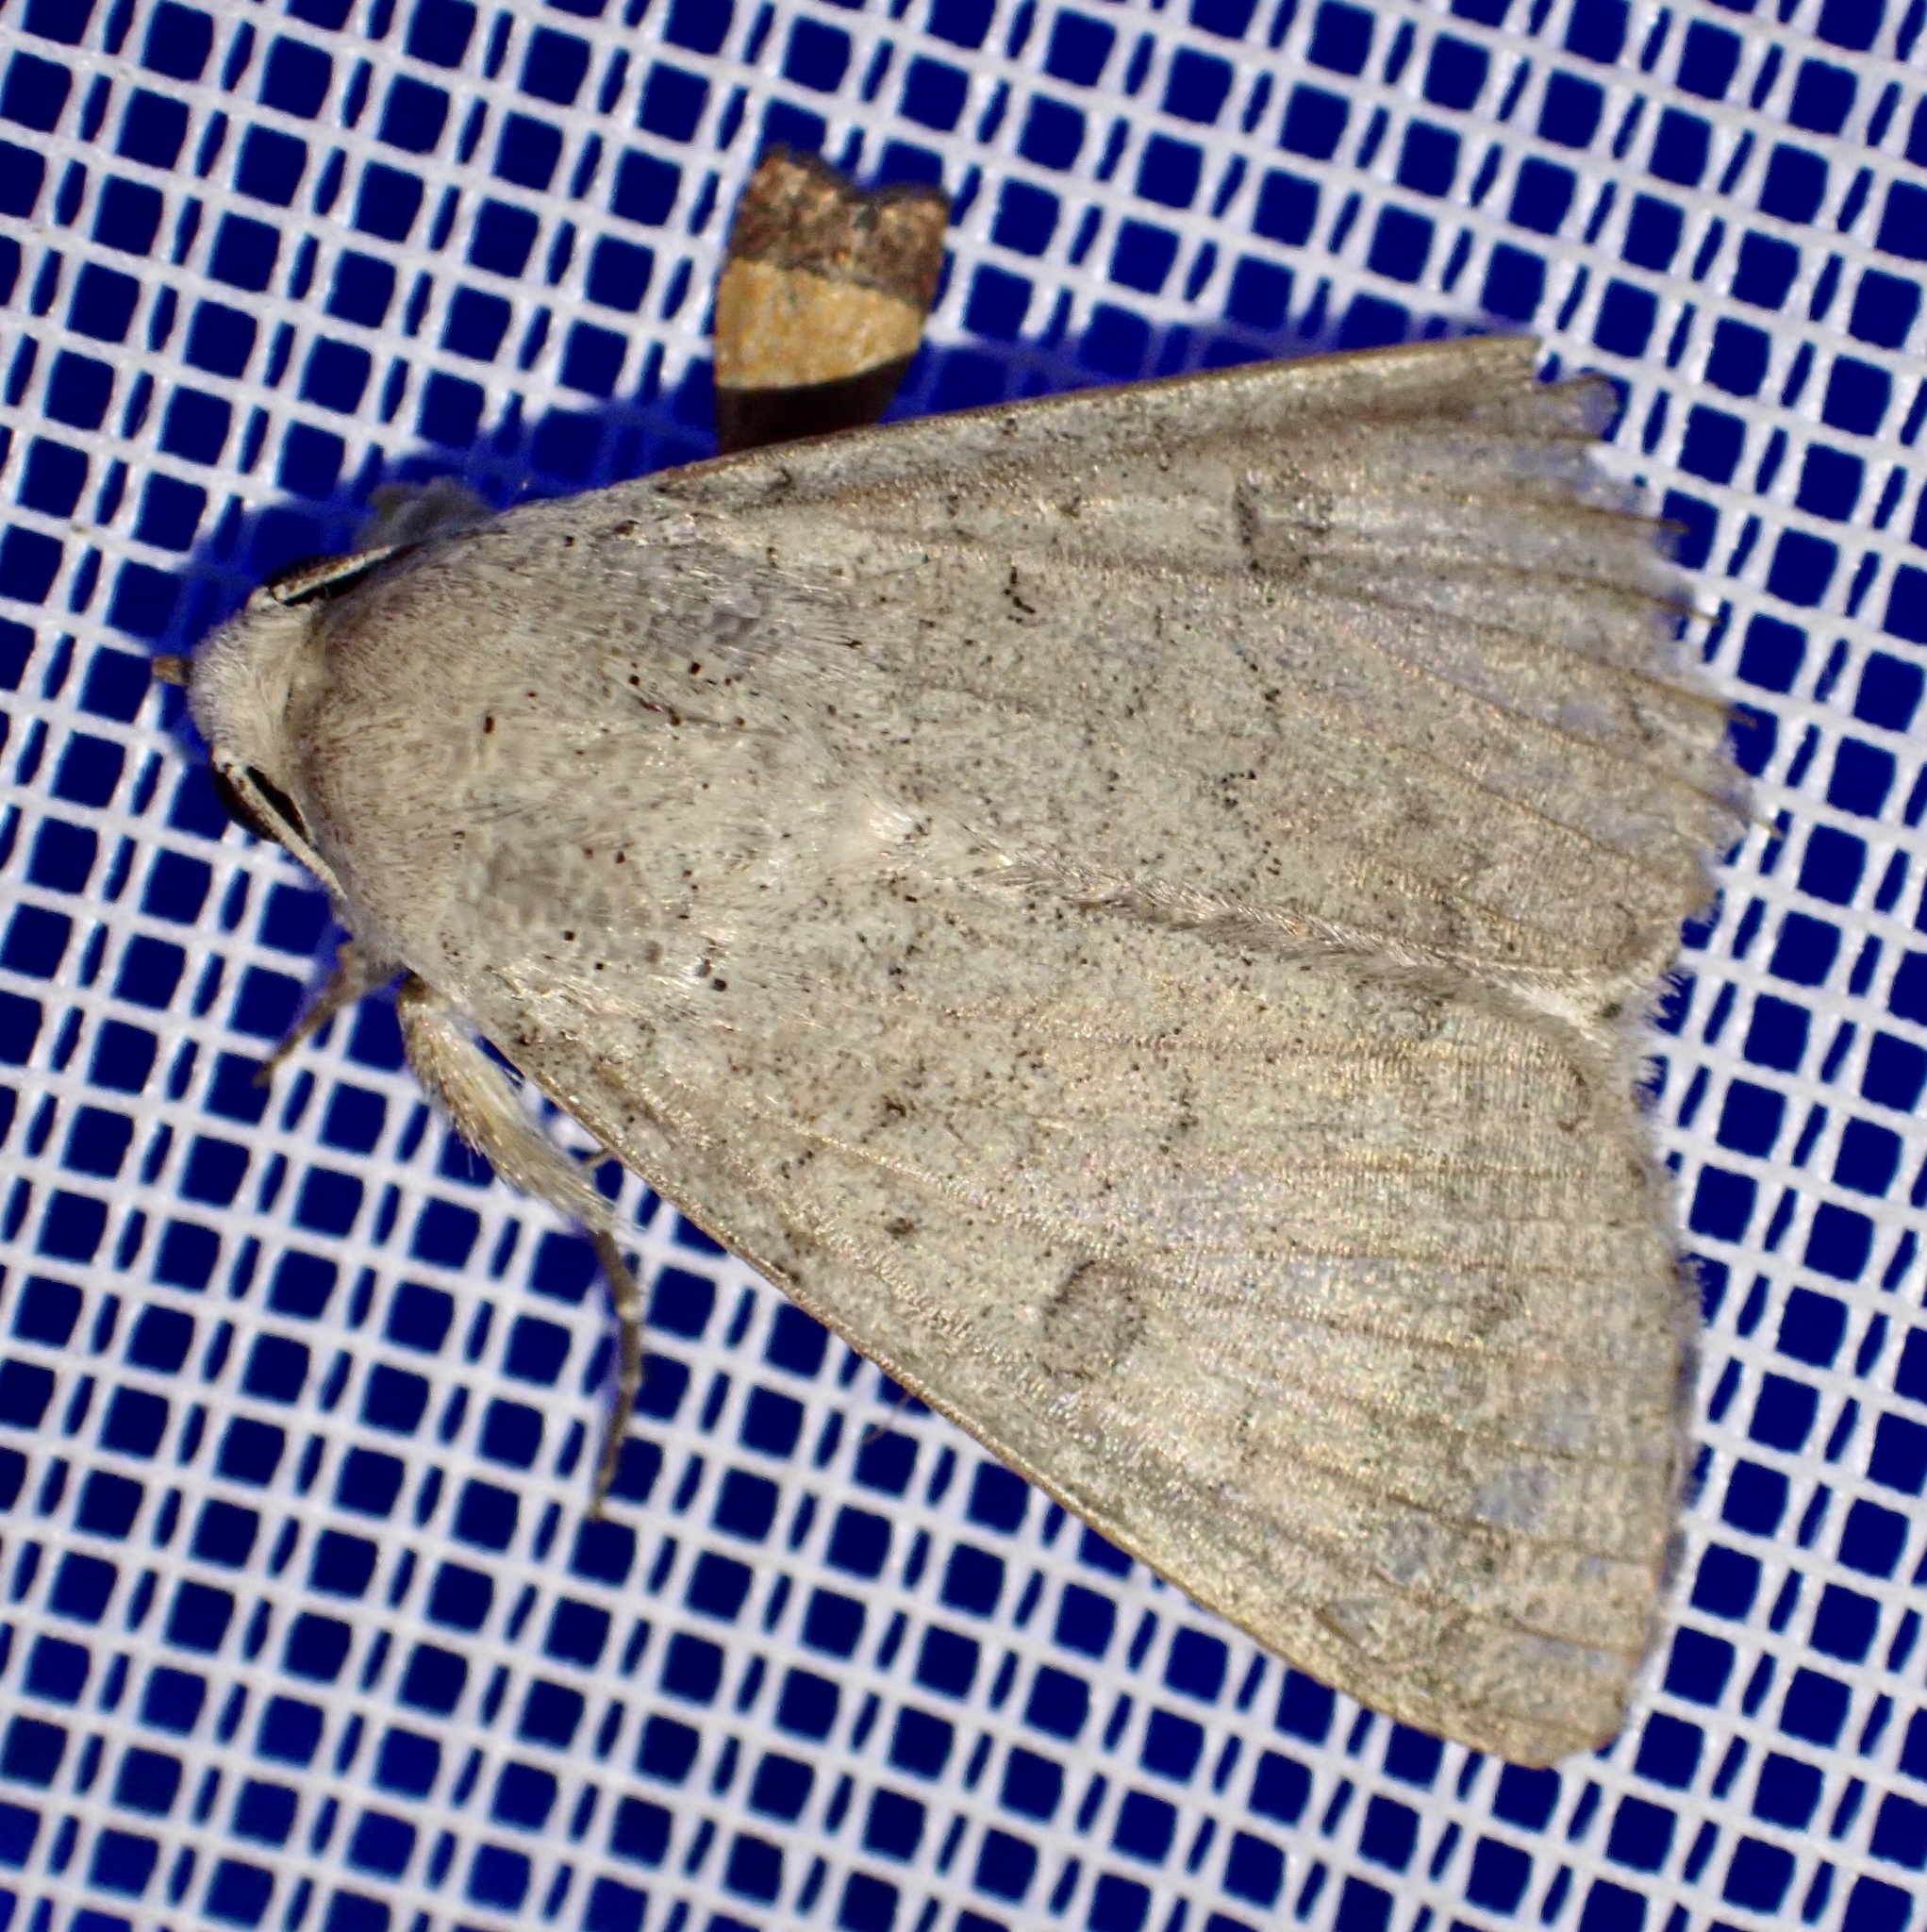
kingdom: Animalia
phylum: Arthropoda
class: Insecta
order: Lepidoptera
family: Erebidae
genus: Pandesma
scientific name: Pandesma robusta
